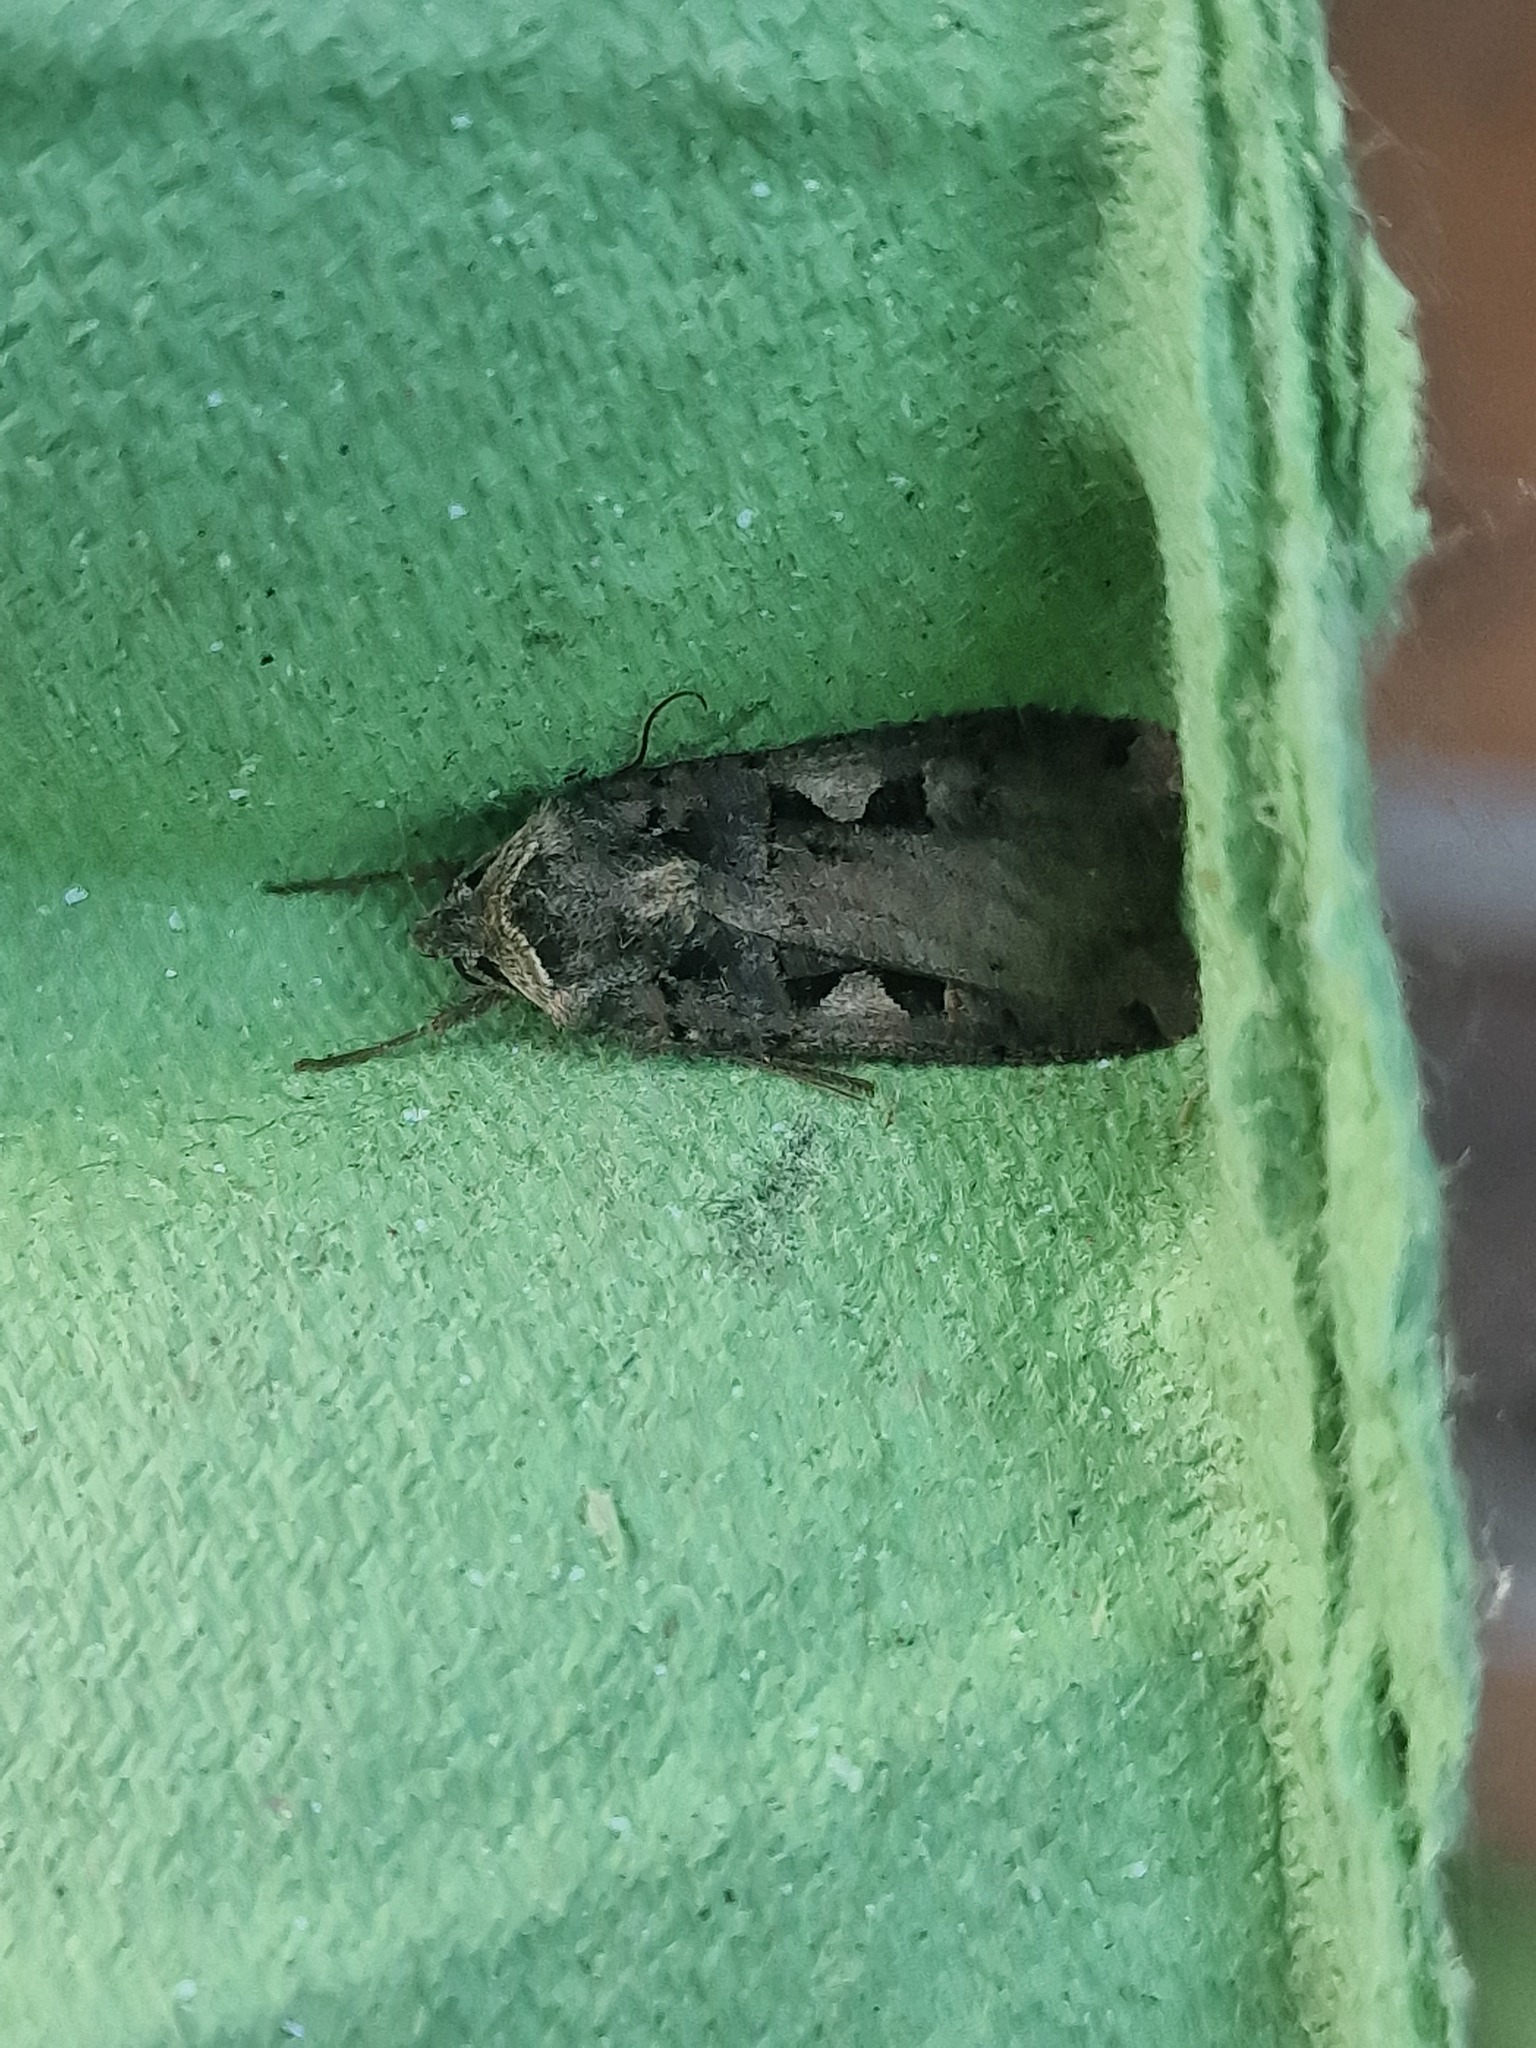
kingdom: Animalia
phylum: Arthropoda
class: Insecta
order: Lepidoptera
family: Noctuidae
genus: Xestia
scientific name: Xestia c-nigrum
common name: Setaceous hebrew character
